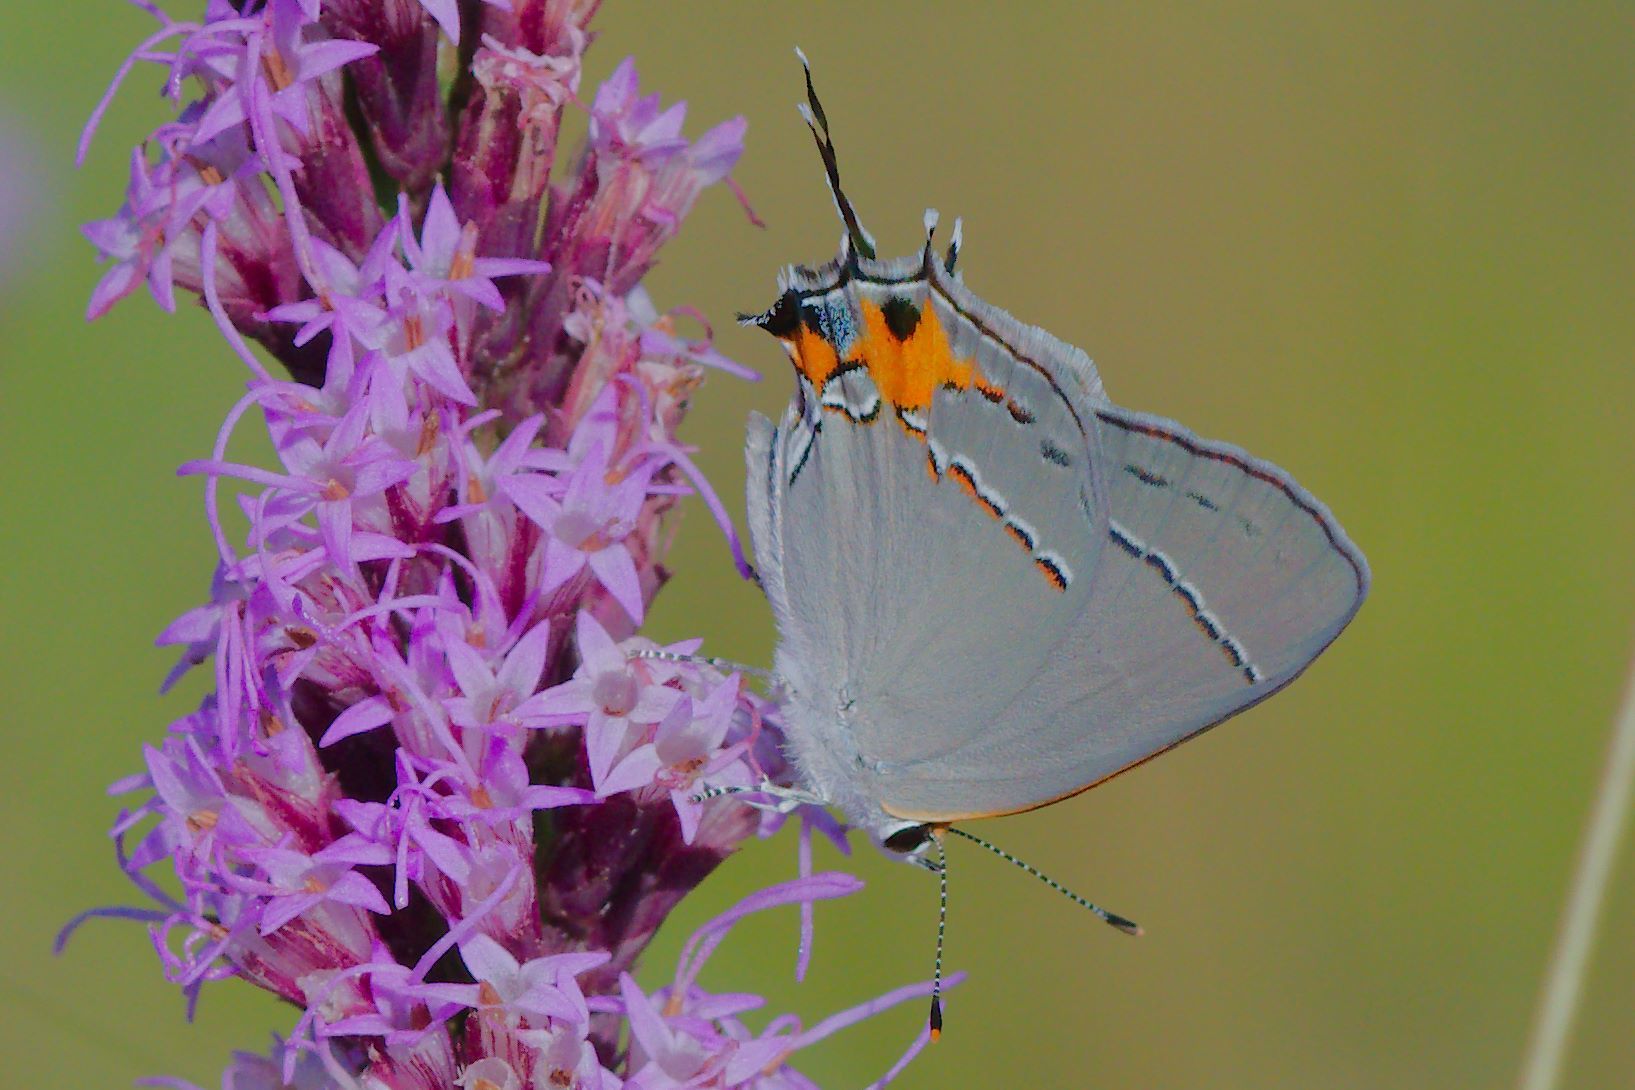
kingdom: Animalia
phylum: Arthropoda
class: Insecta
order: Lepidoptera
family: Lycaenidae
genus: Strymon
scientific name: Strymon melinus
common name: Gray hairstreak
